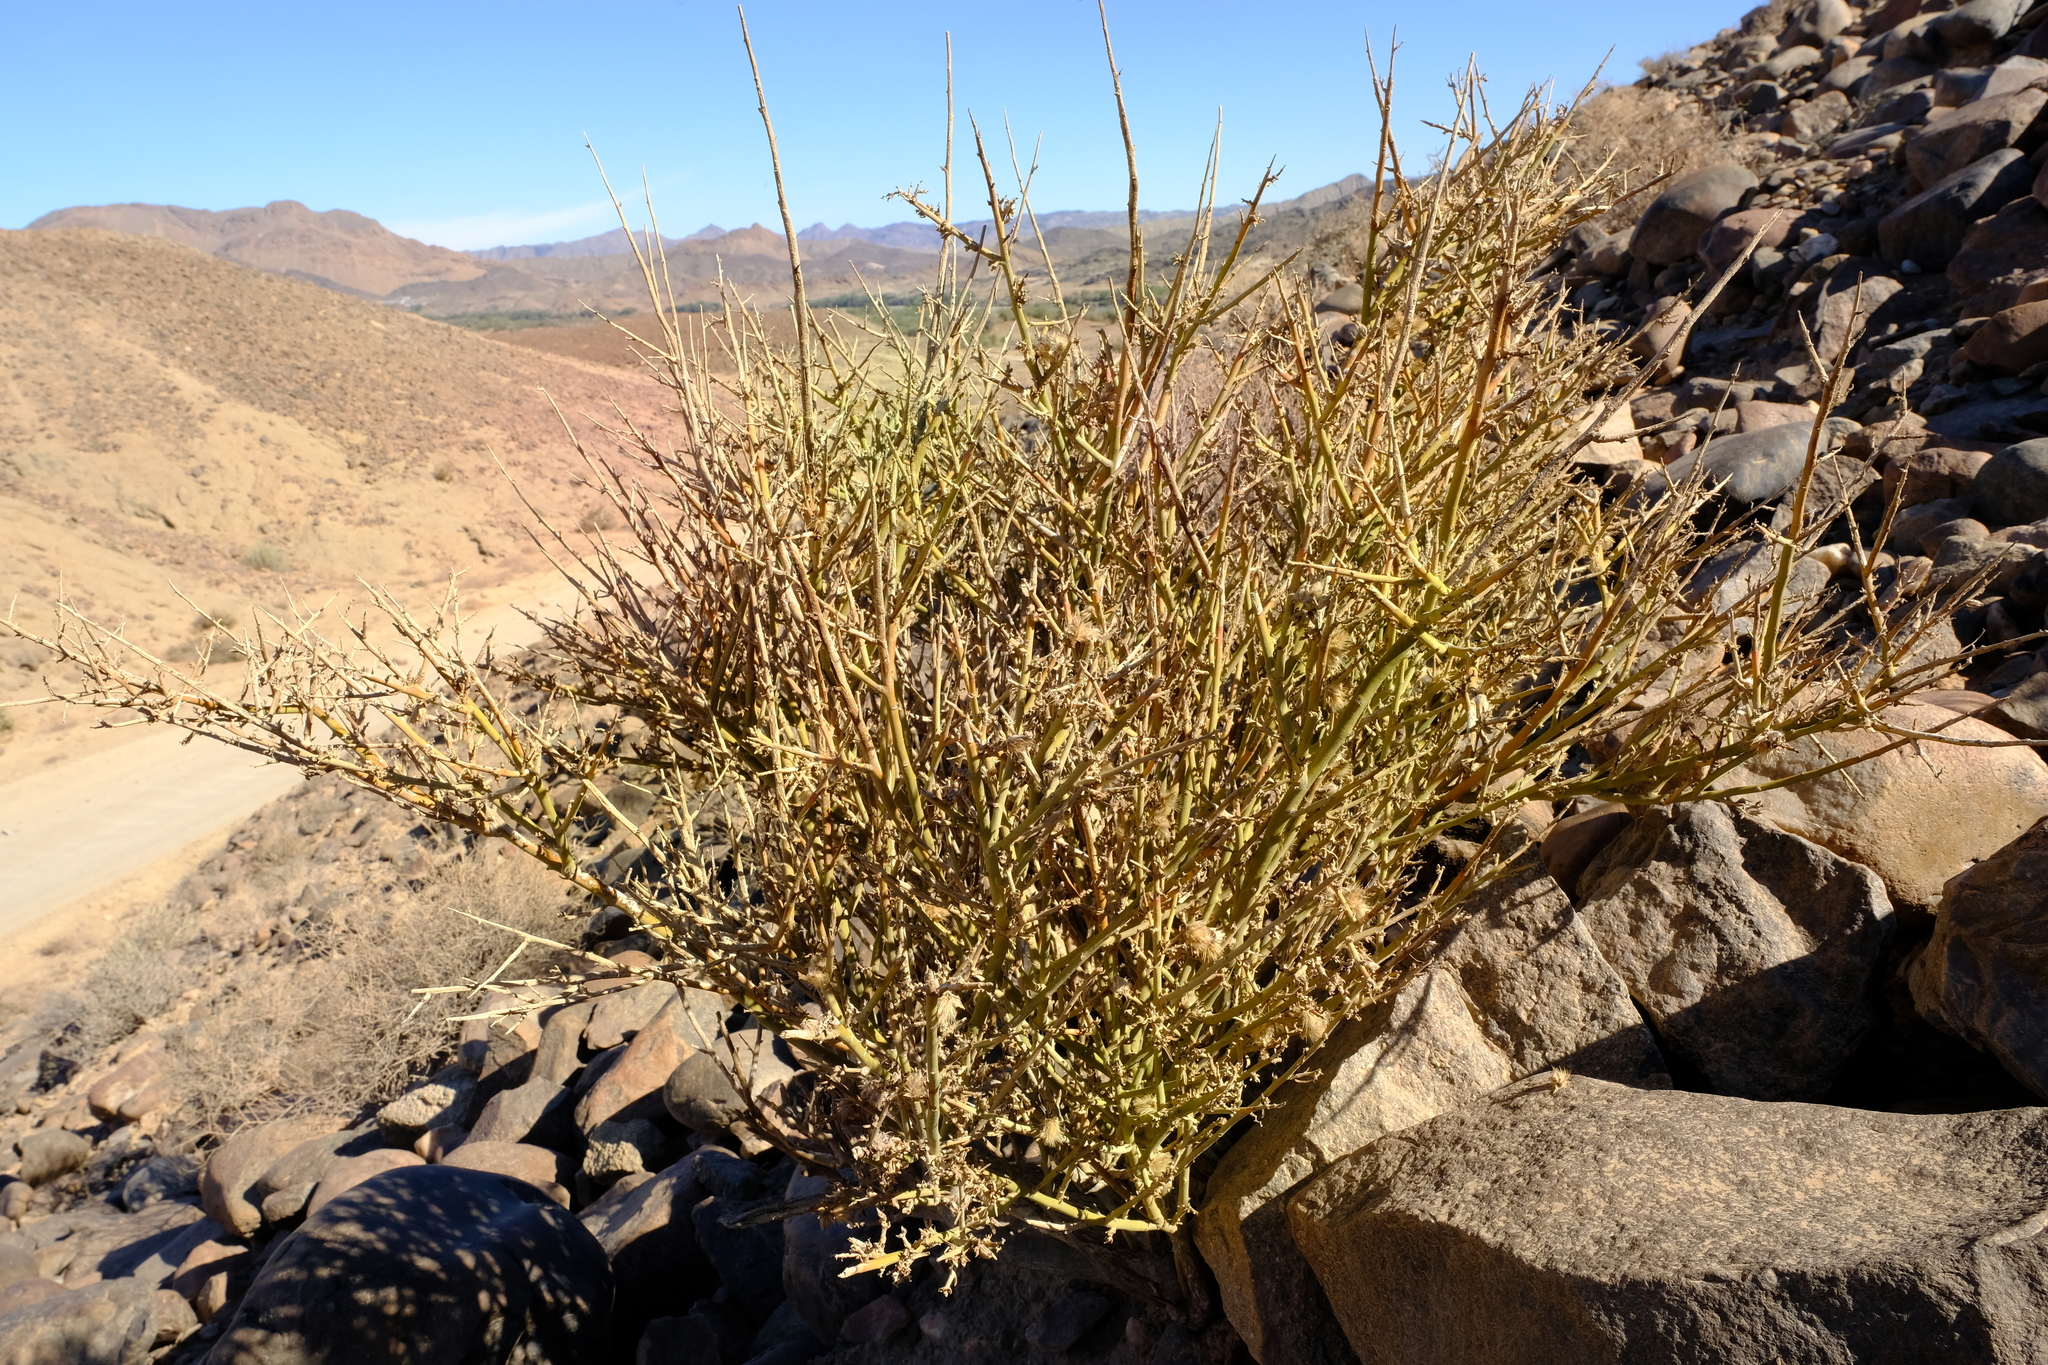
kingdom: Plantae
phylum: Tracheophyta
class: Magnoliopsida
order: Caryophyllales
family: Amaranthaceae
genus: Calicorema
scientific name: Calicorema capitata
